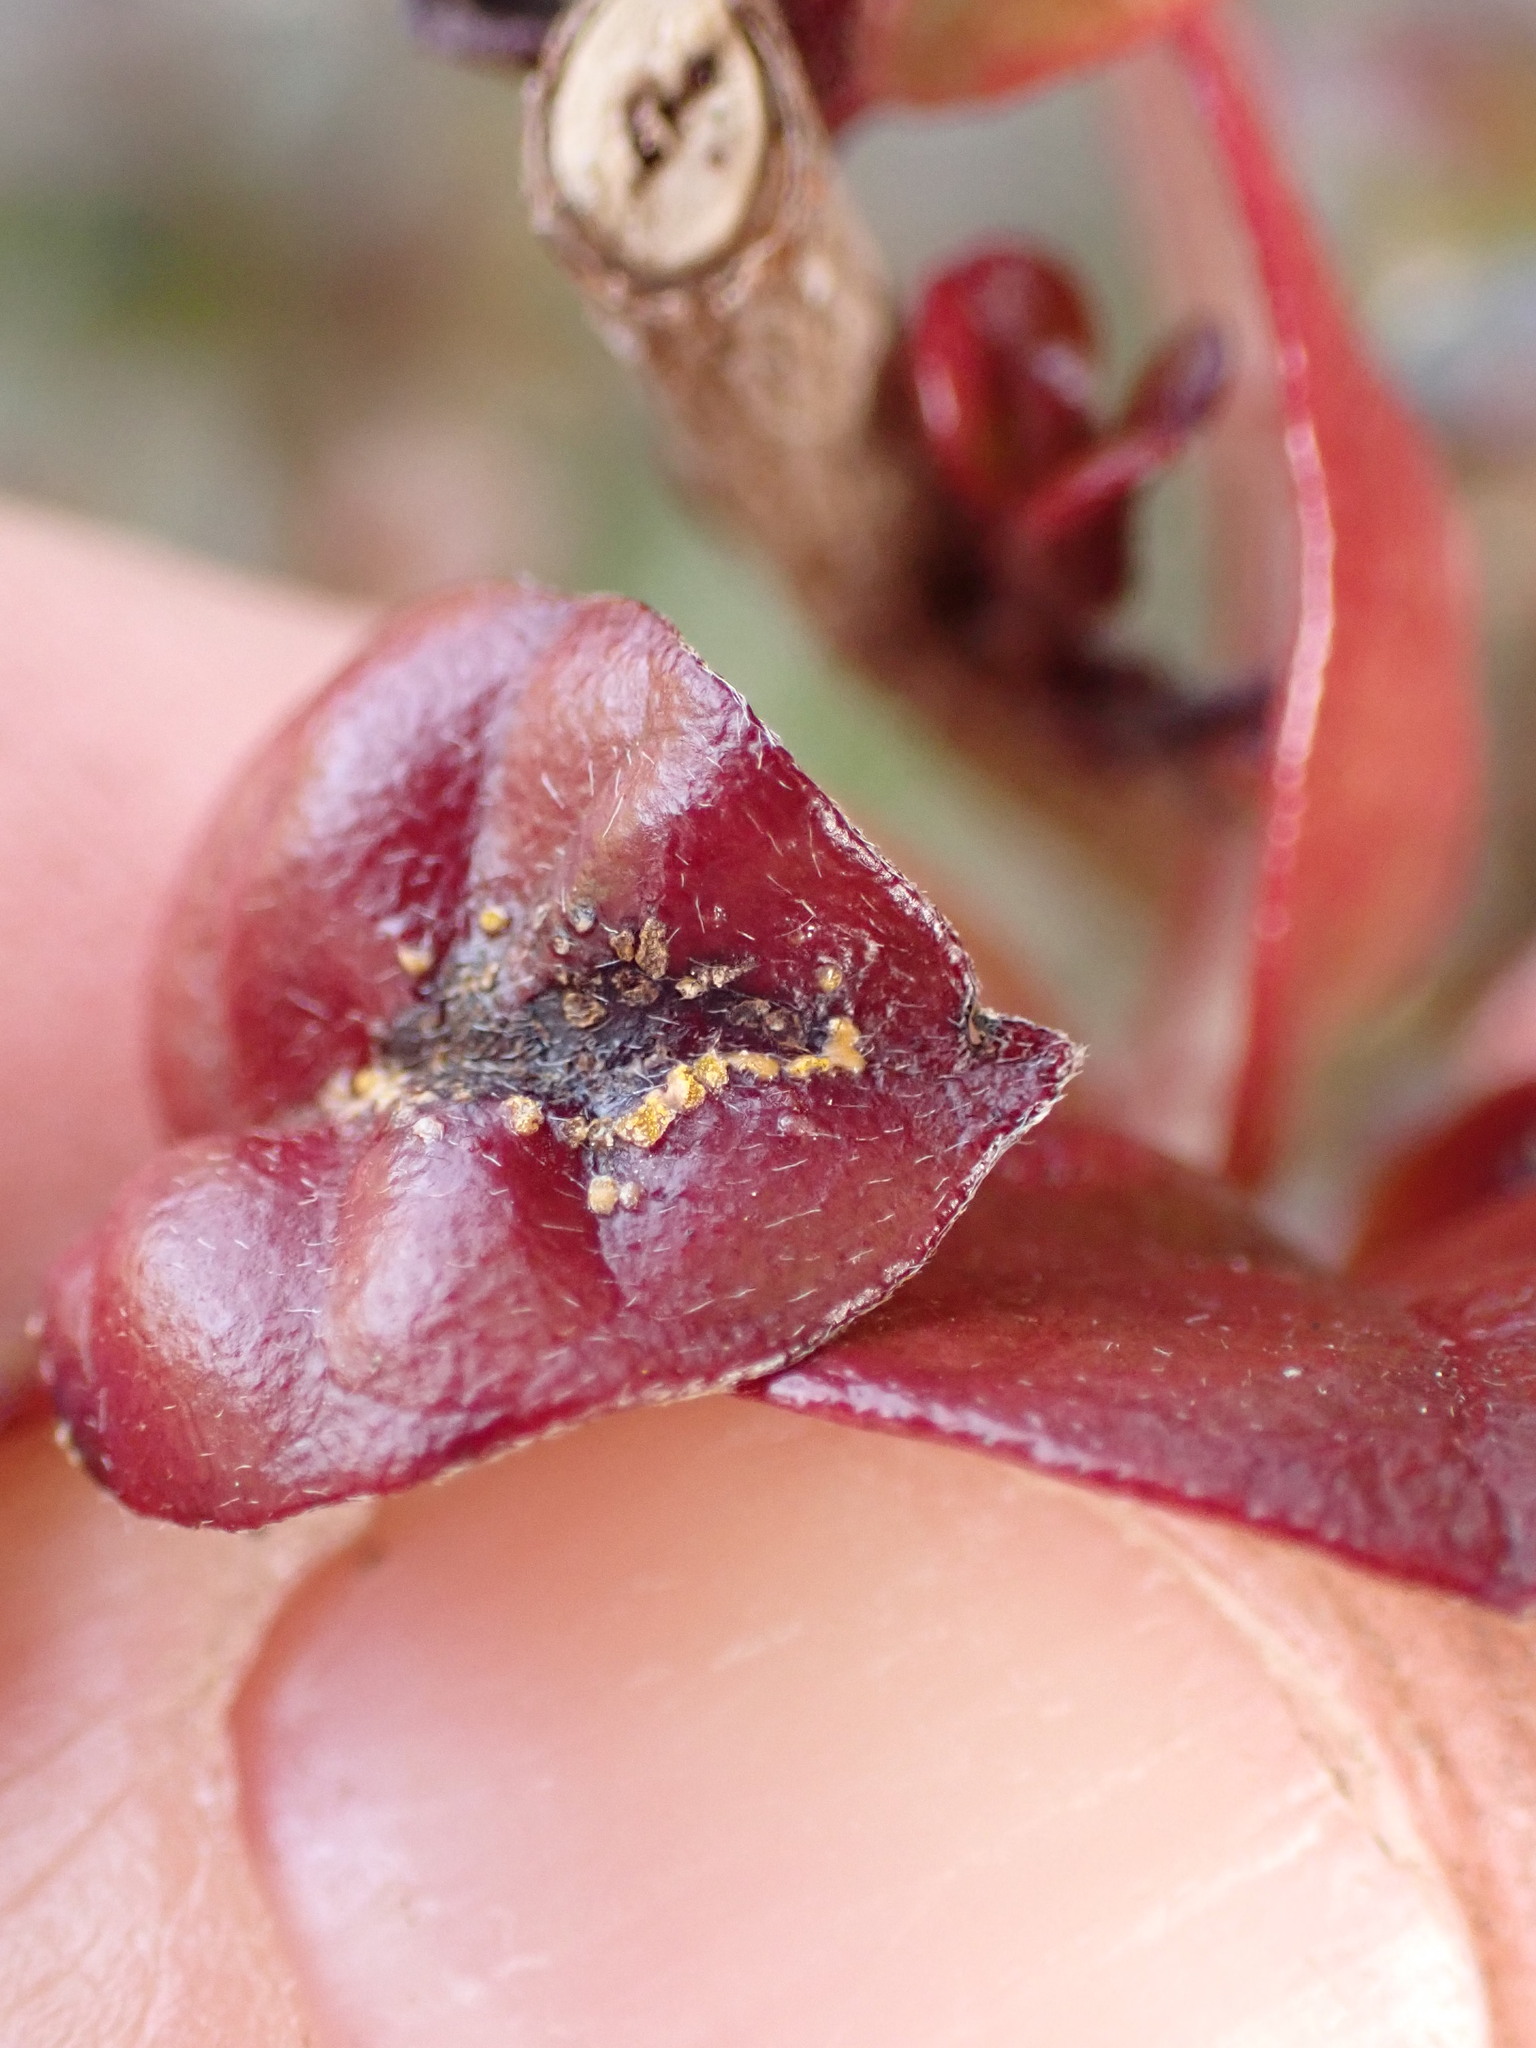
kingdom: Fungi
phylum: Basidiomycota
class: Pucciniomycetes
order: Pucciniales
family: Sphaerophragmiaceae
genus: Austropuccinia
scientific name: Austropuccinia psidii
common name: Myrtle rust
